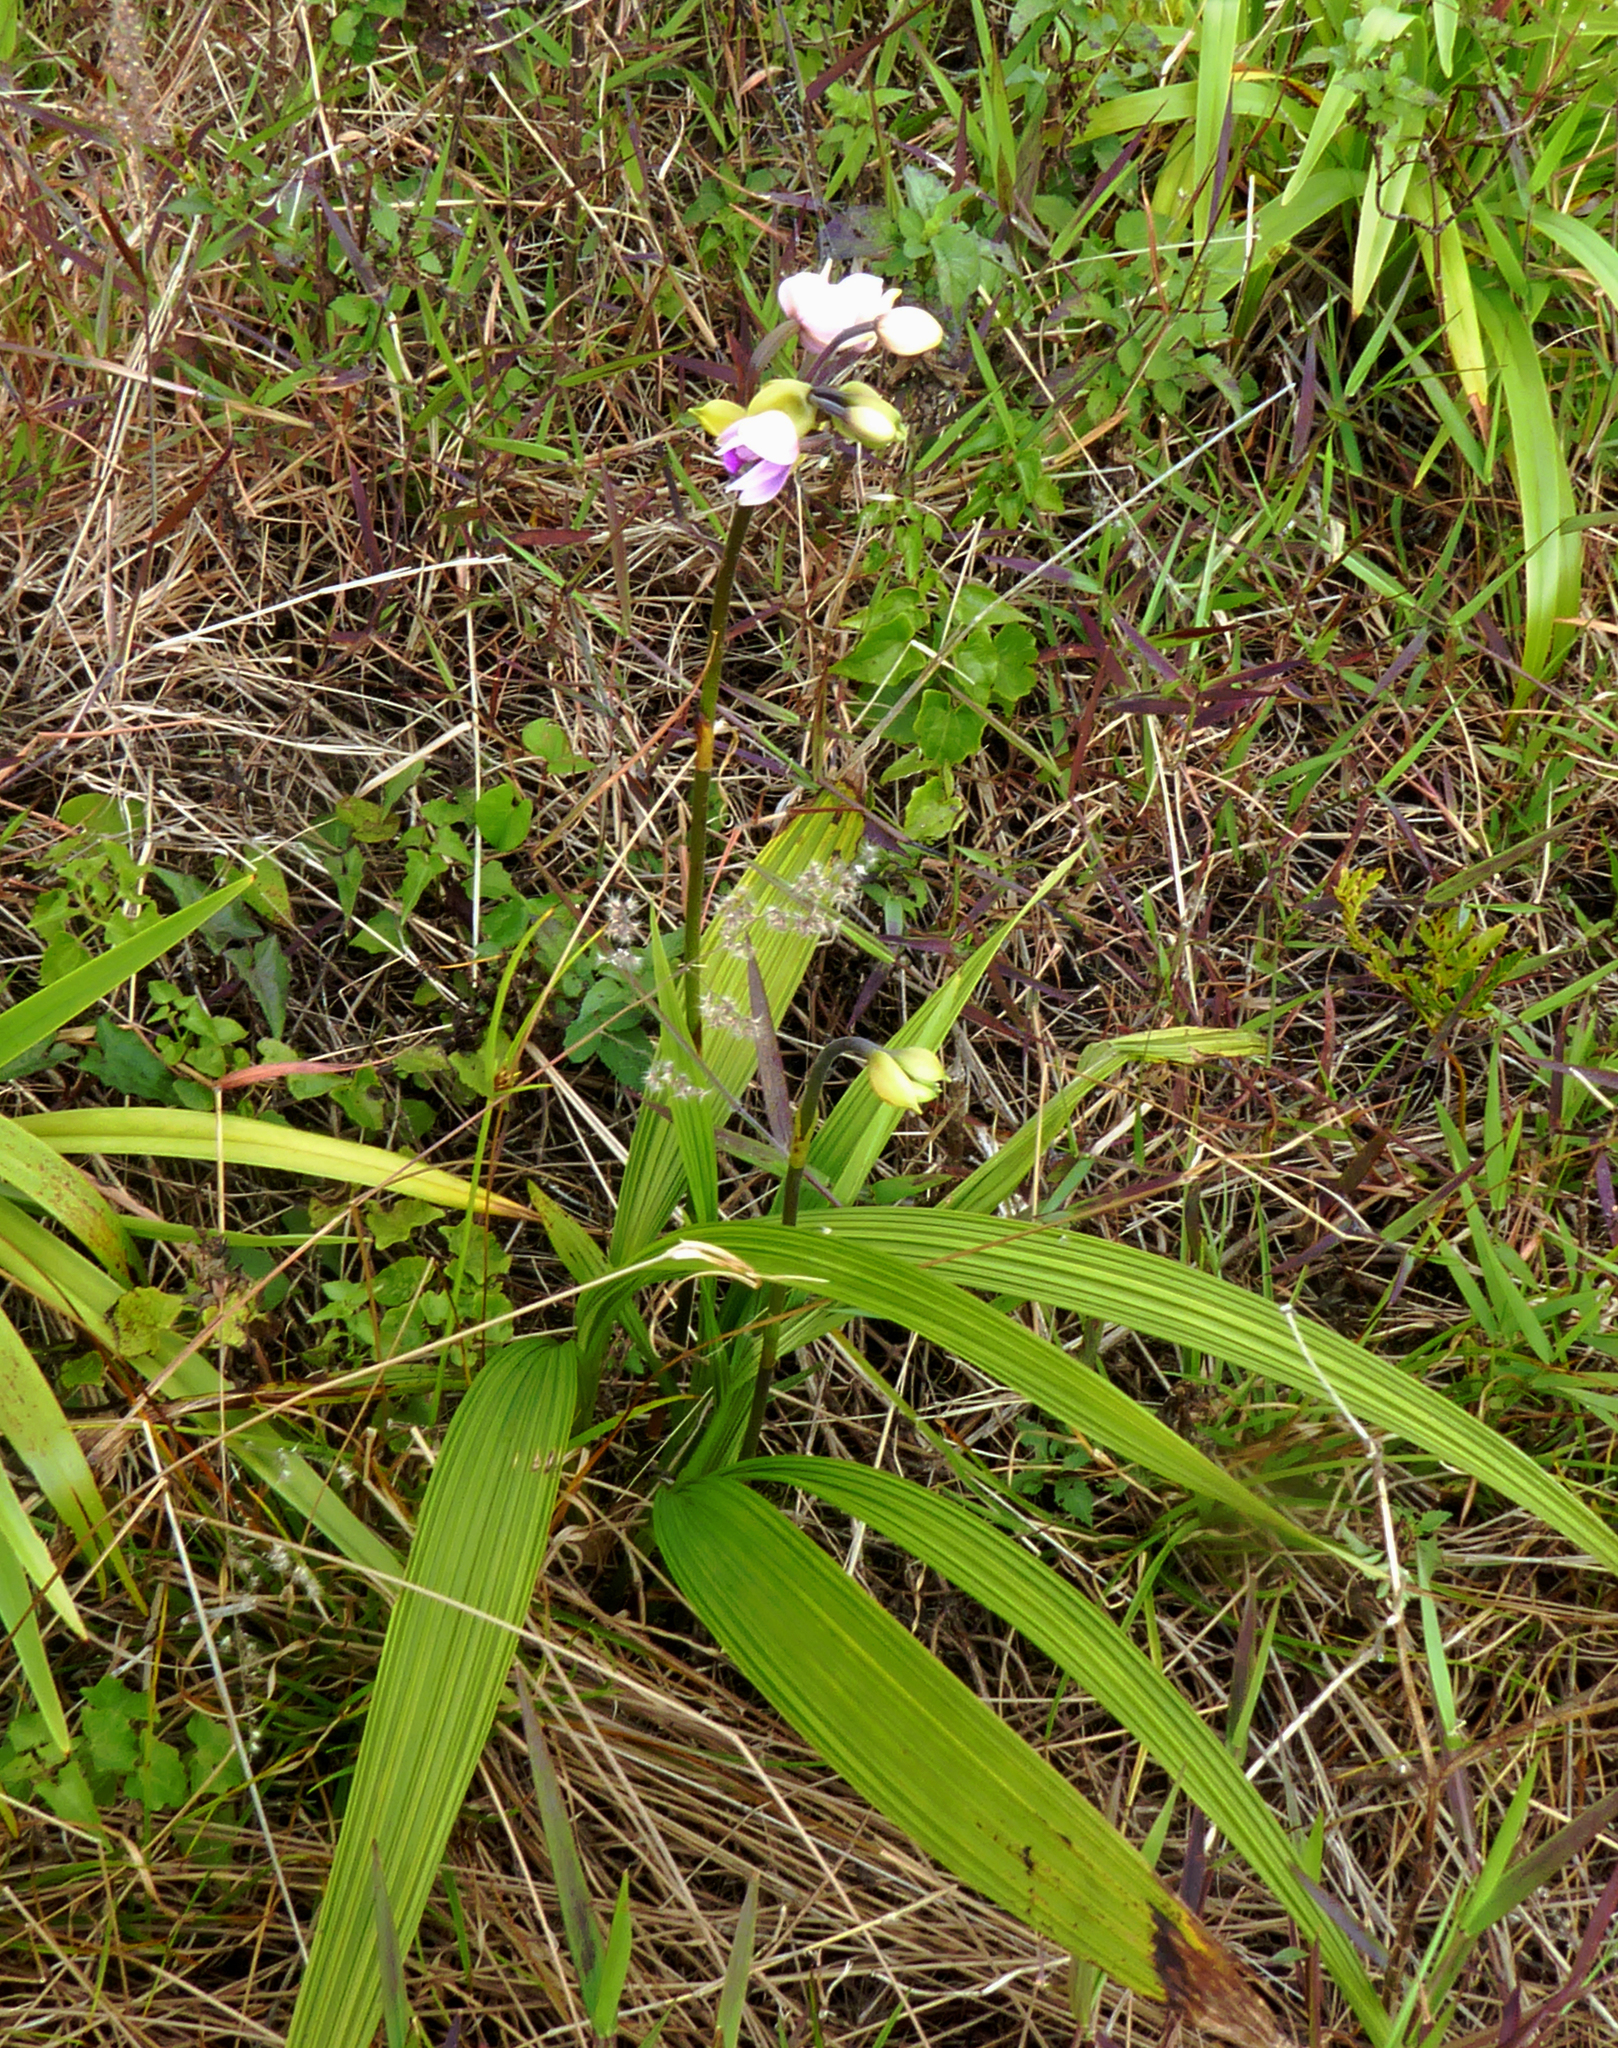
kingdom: Plantae
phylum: Tracheophyta
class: Liliopsida
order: Asparagales
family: Orchidaceae
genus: Spathoglottis
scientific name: Spathoglottis plicata
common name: Philippine ground orchid
